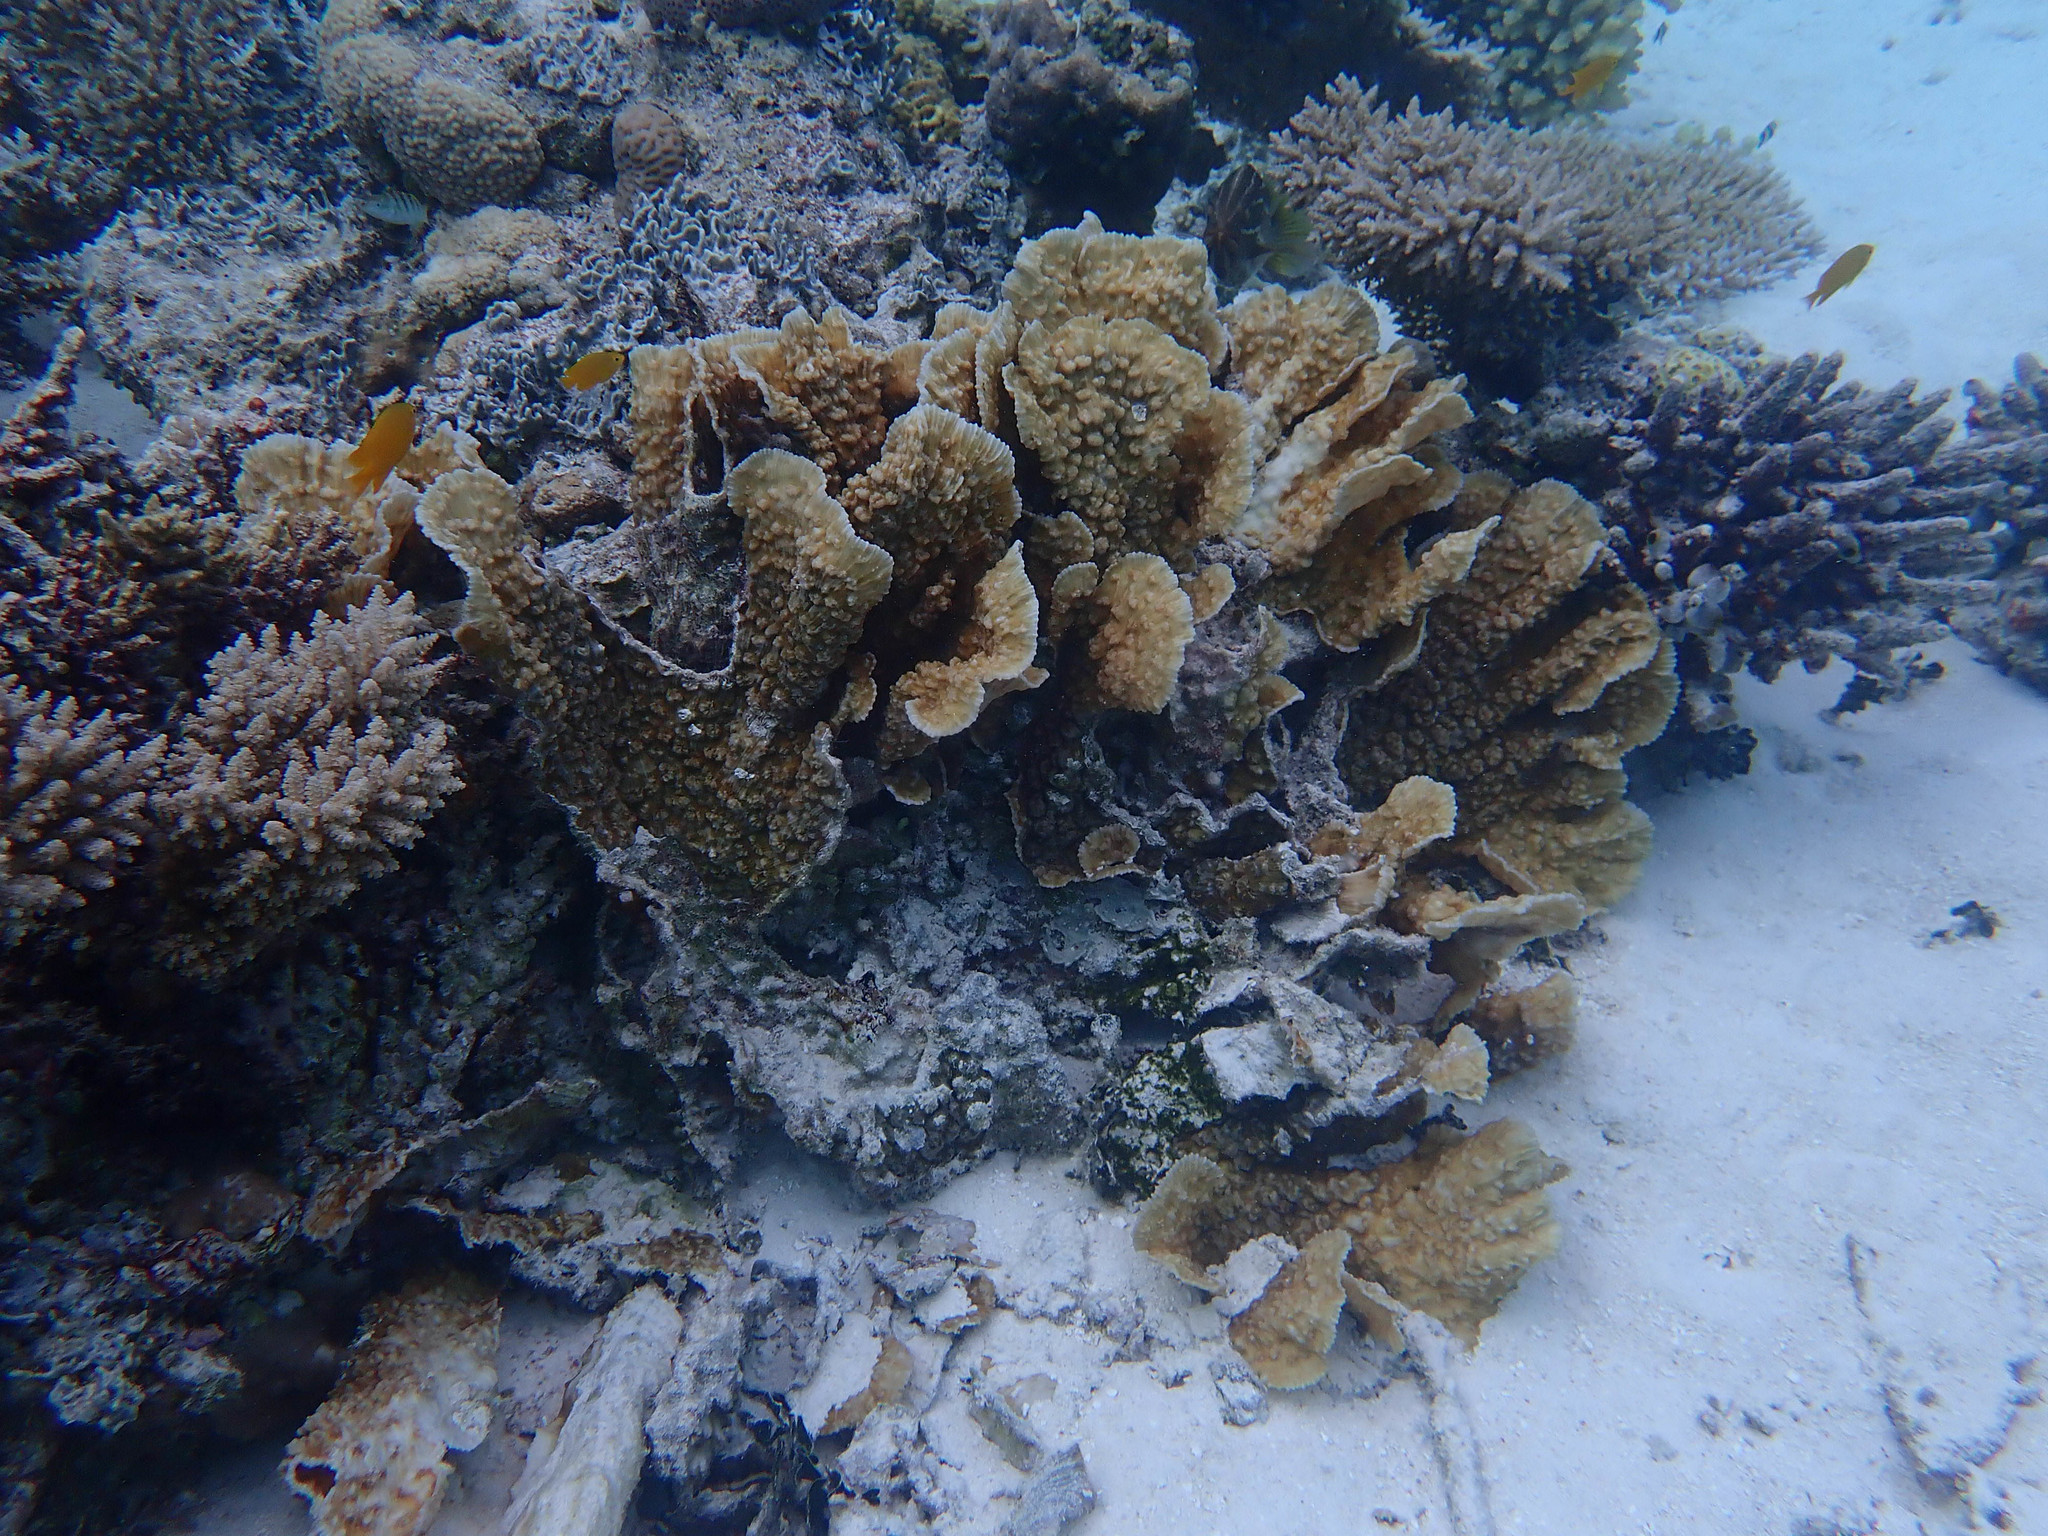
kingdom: Animalia
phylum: Chordata
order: Perciformes
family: Pomacentridae
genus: Pomacentrus
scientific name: Pomacentrus moluccensis
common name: Lemon damsel
